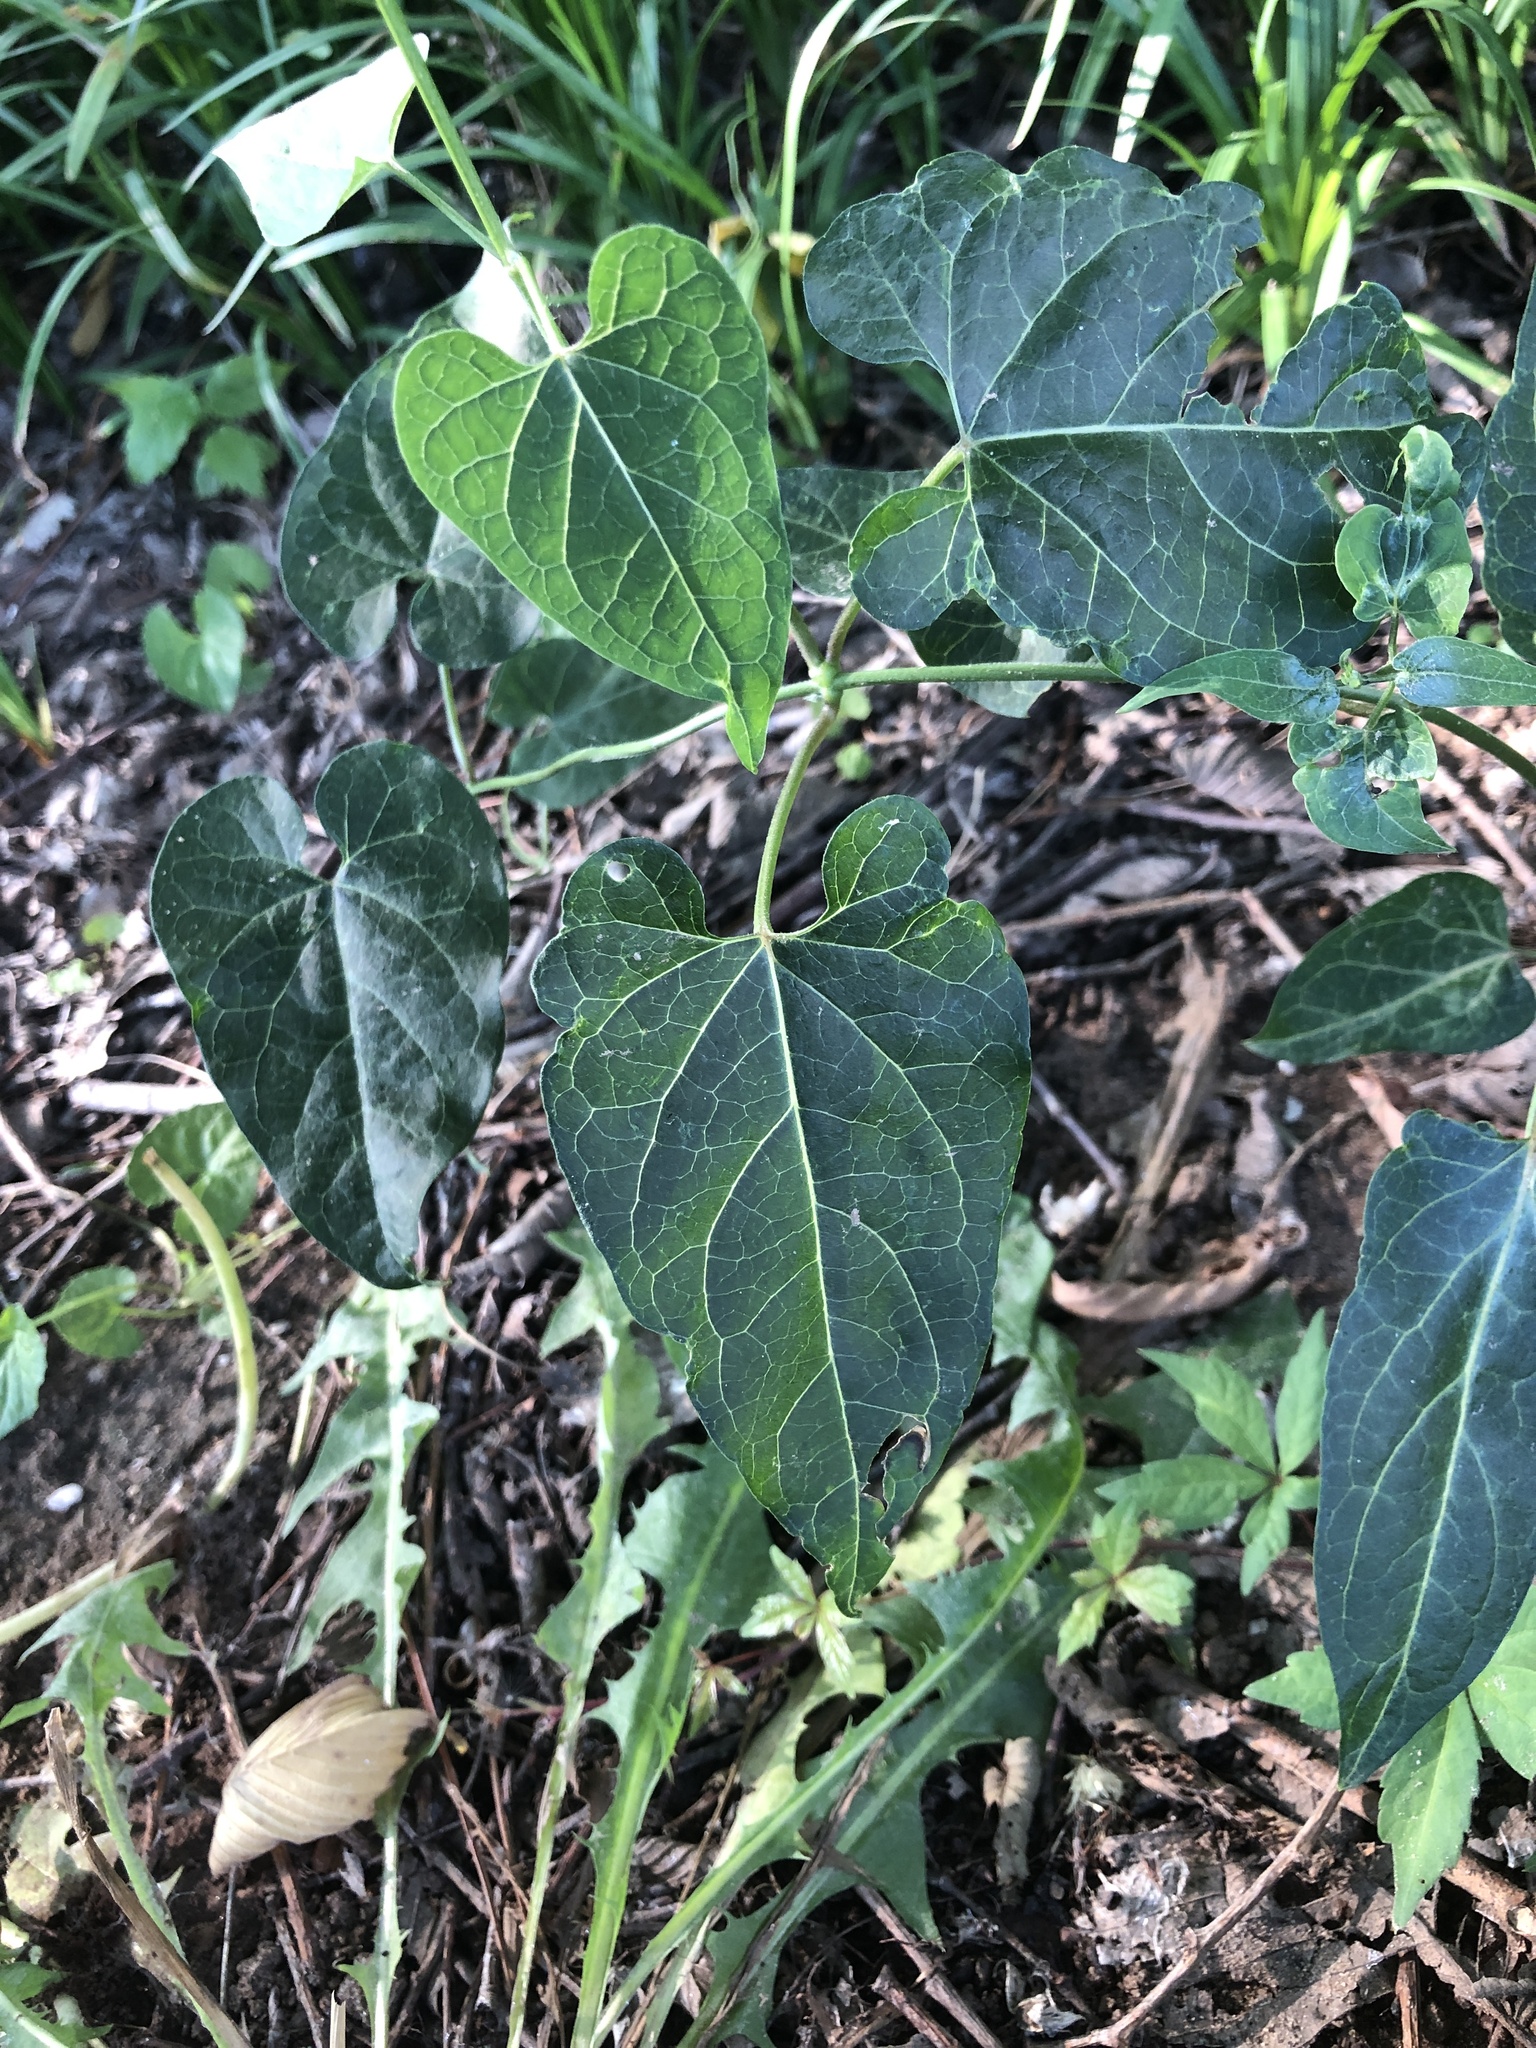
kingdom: Plantae
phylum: Tracheophyta
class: Magnoliopsida
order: Gentianales
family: Apocynaceae
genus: Cynanchum
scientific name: Cynanchum laeve
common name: Sandvine
